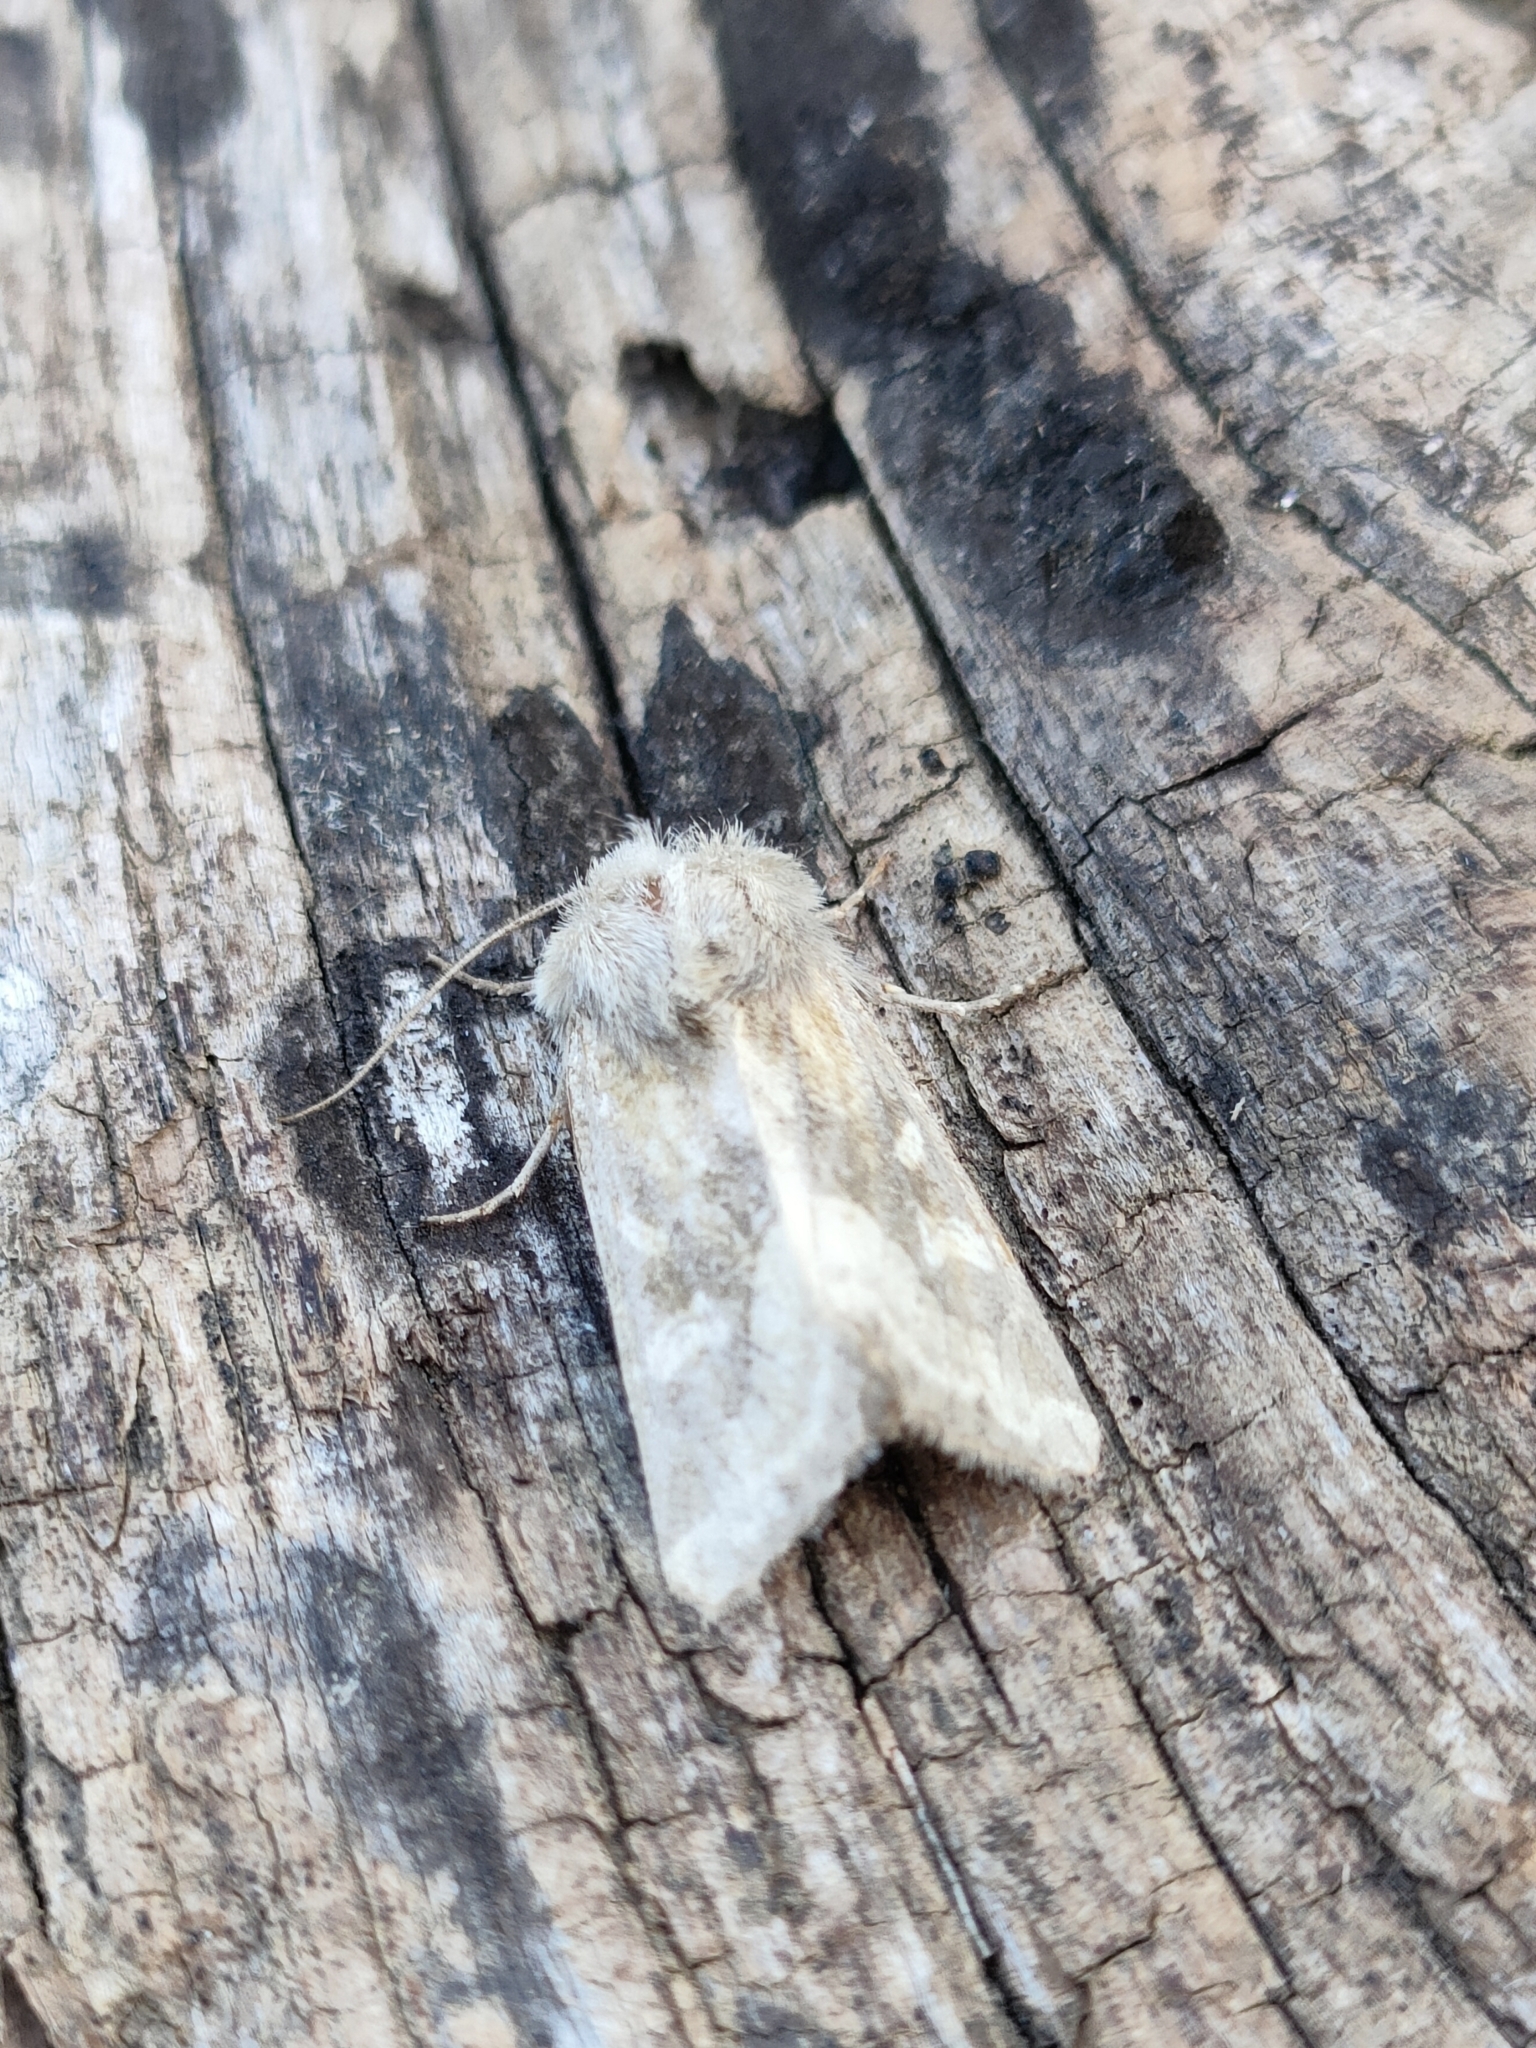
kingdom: Animalia
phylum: Arthropoda
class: Insecta
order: Lepidoptera
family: Noctuidae
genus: Luperina
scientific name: Luperina dumerilii
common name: Dumeril's rustic
